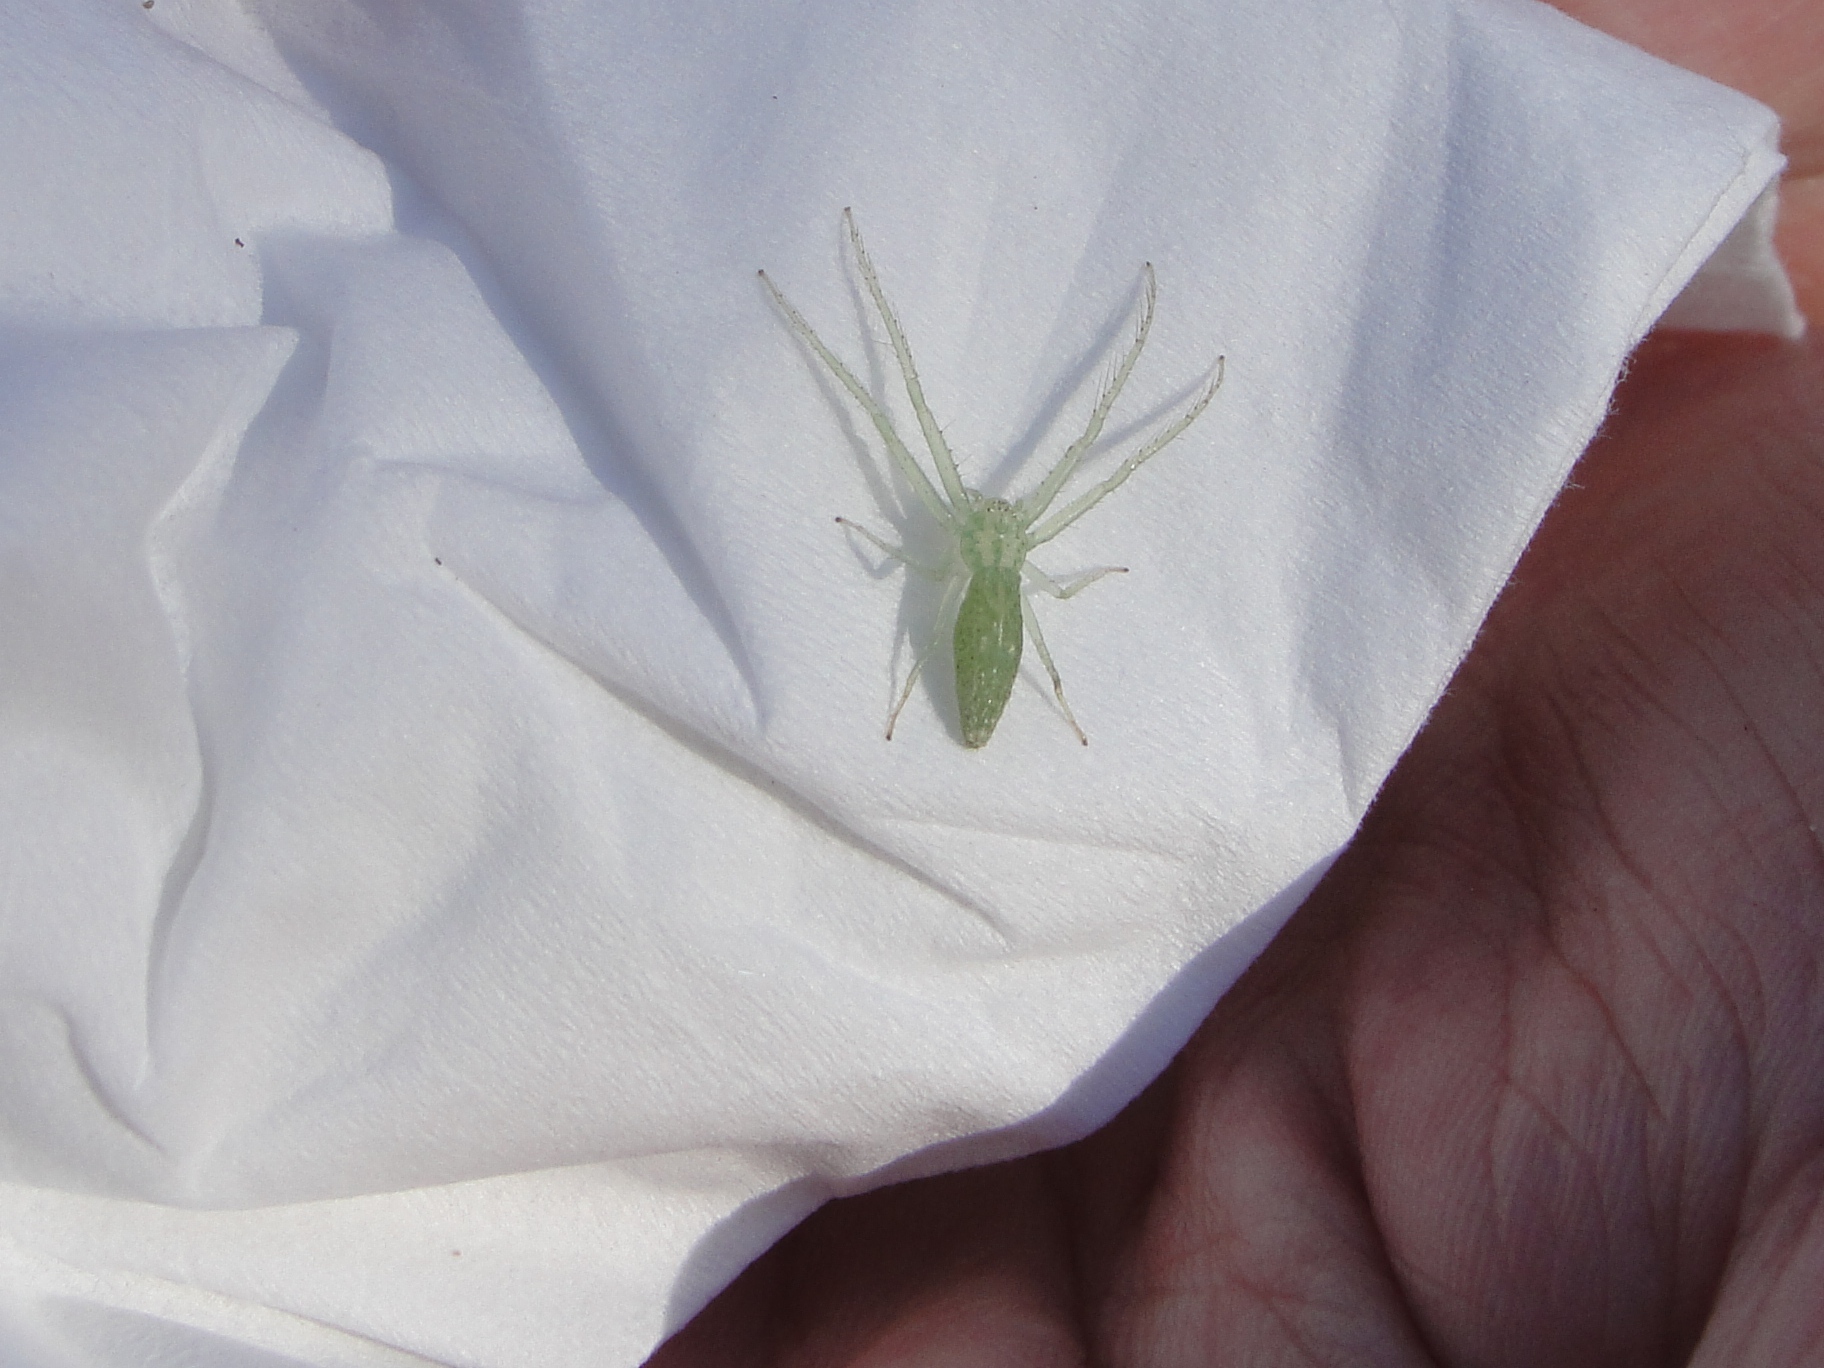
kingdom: Animalia
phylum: Arthropoda
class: Arachnida
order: Araneae
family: Thomisidae
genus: Oxytate
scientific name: Oxytate argenteooculata
